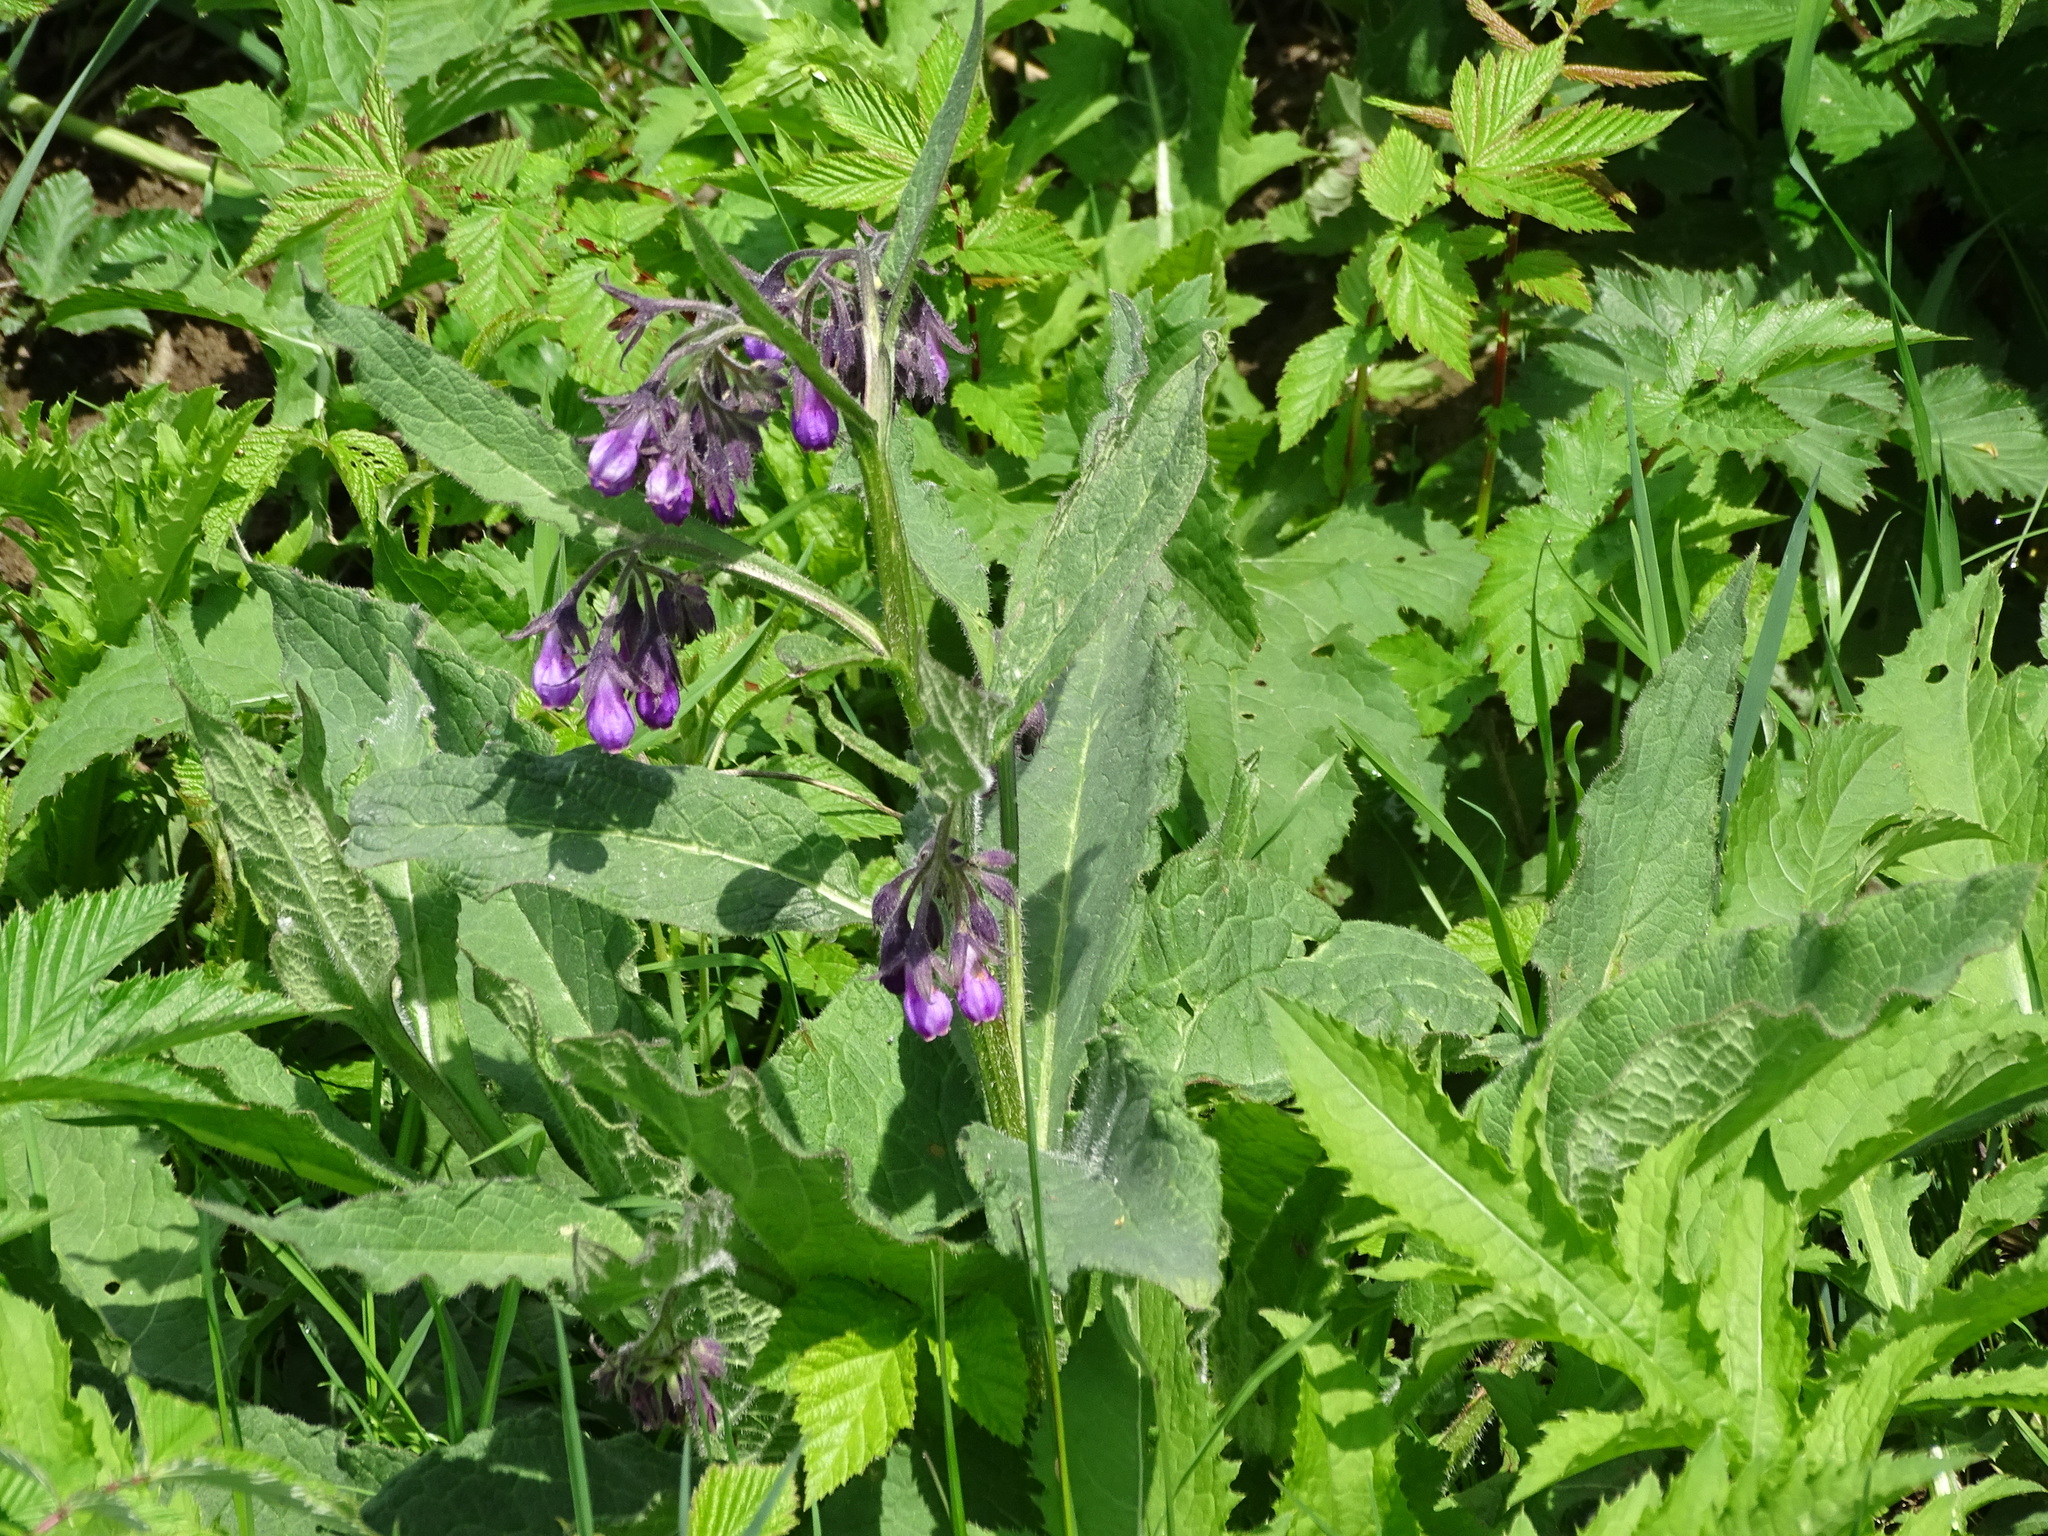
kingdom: Plantae
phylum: Tracheophyta
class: Magnoliopsida
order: Boraginales
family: Boraginaceae
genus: Symphytum
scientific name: Symphytum officinale
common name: Common comfrey
